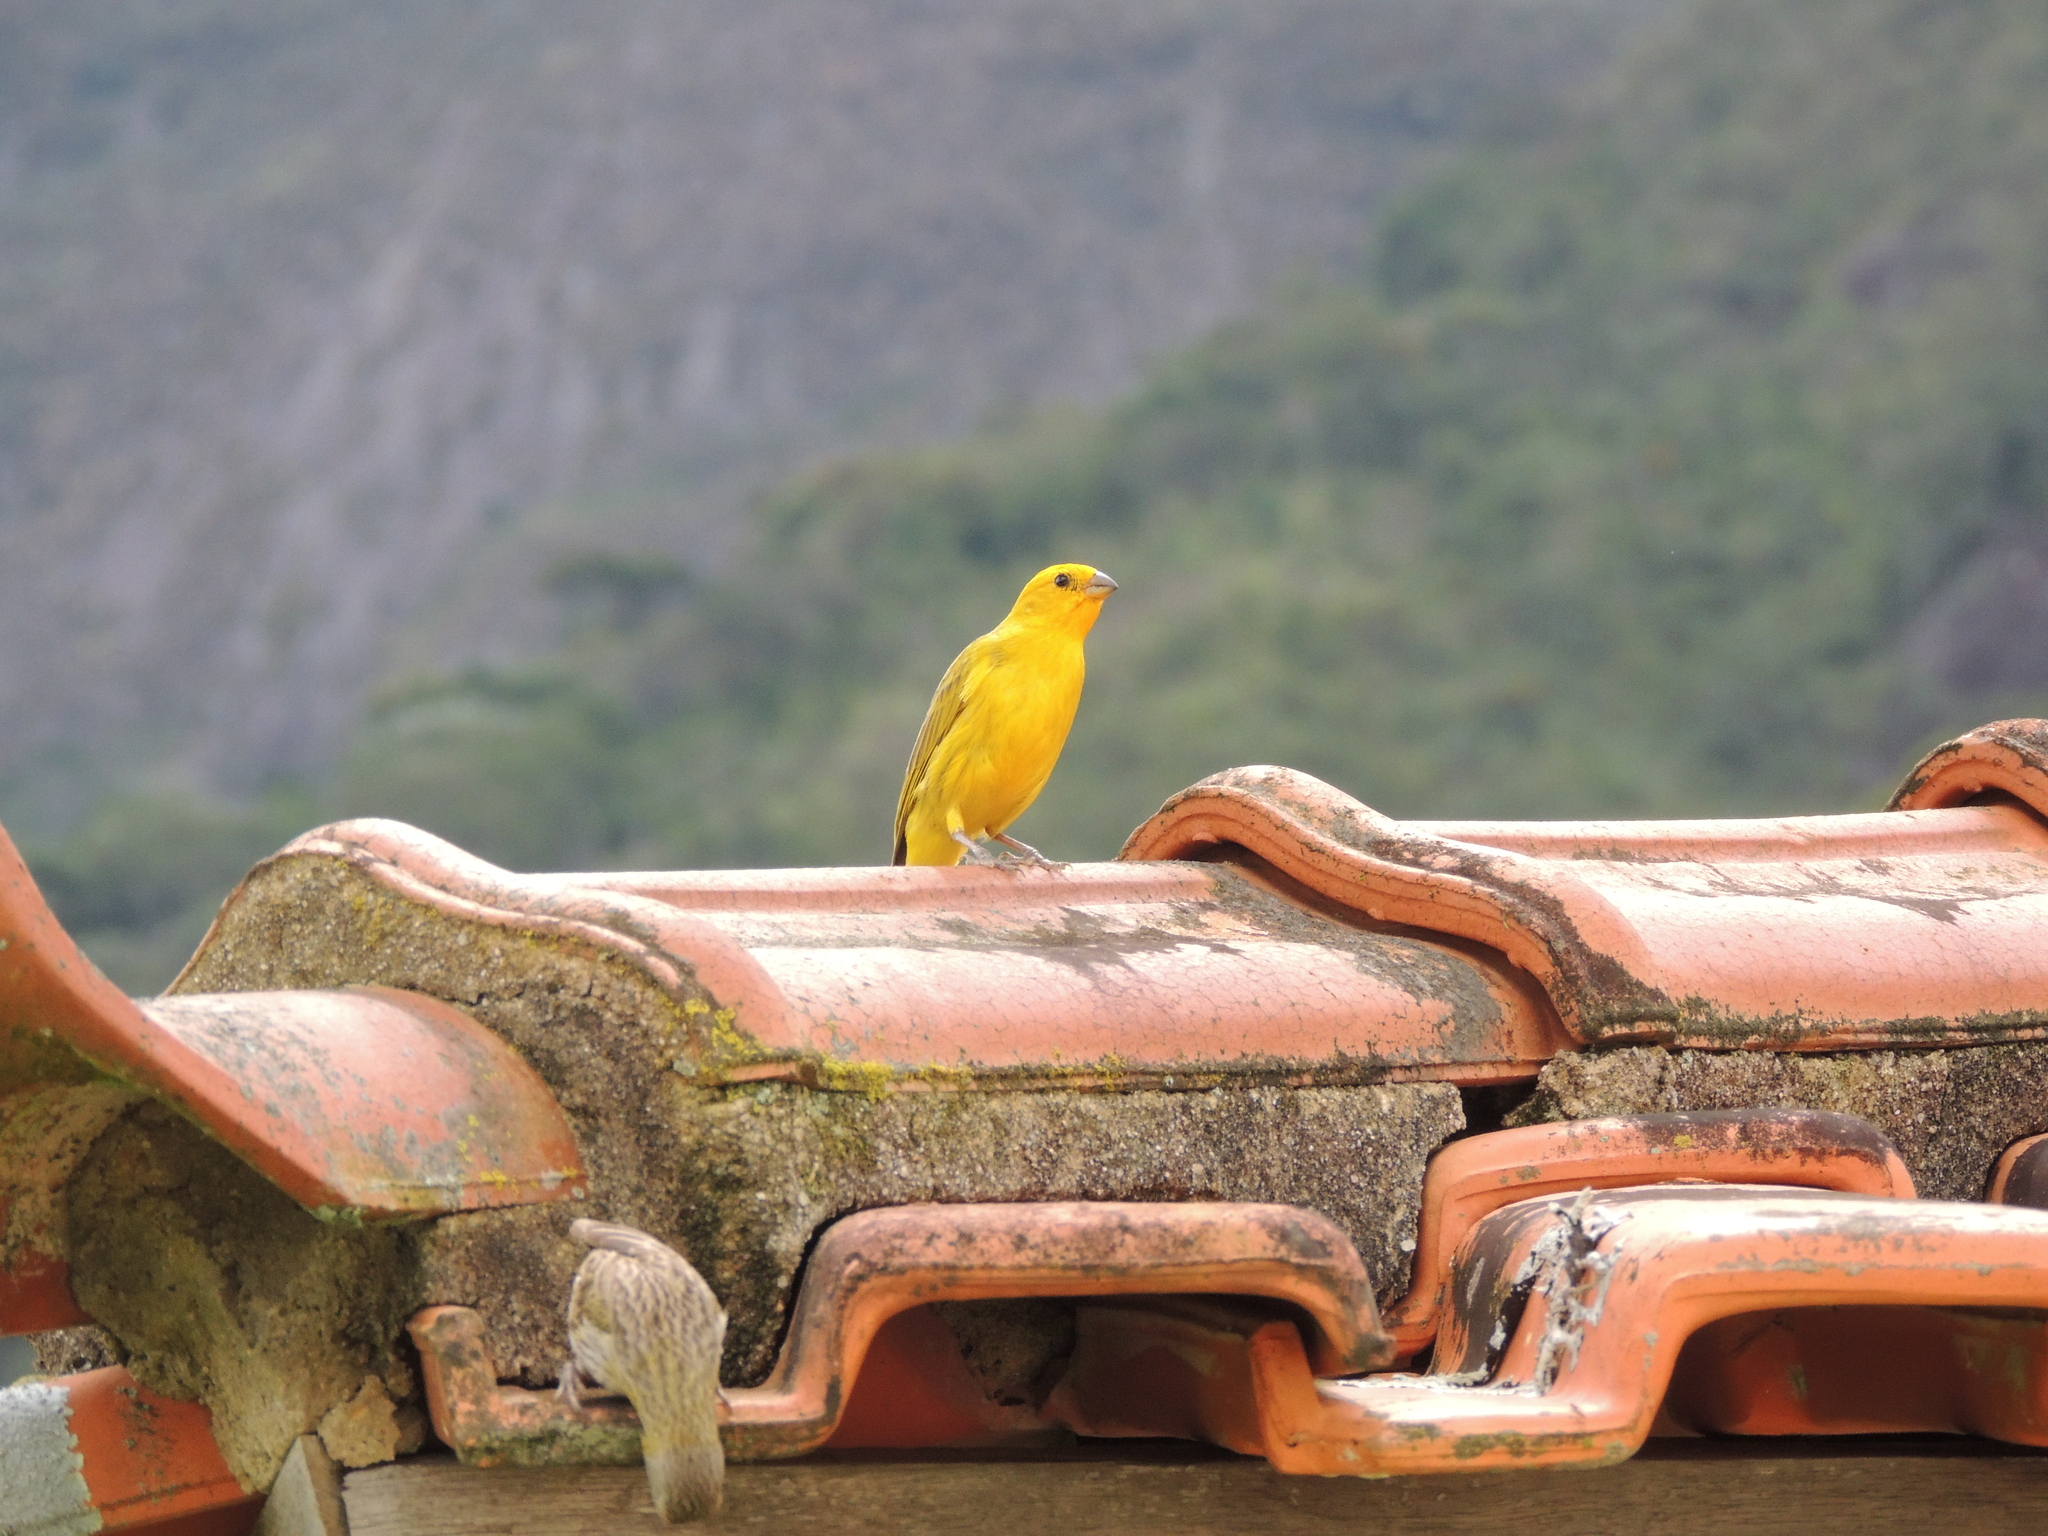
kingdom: Animalia
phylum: Chordata
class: Aves
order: Passeriformes
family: Thraupidae
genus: Sicalis
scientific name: Sicalis flaveola
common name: Saffron finch
